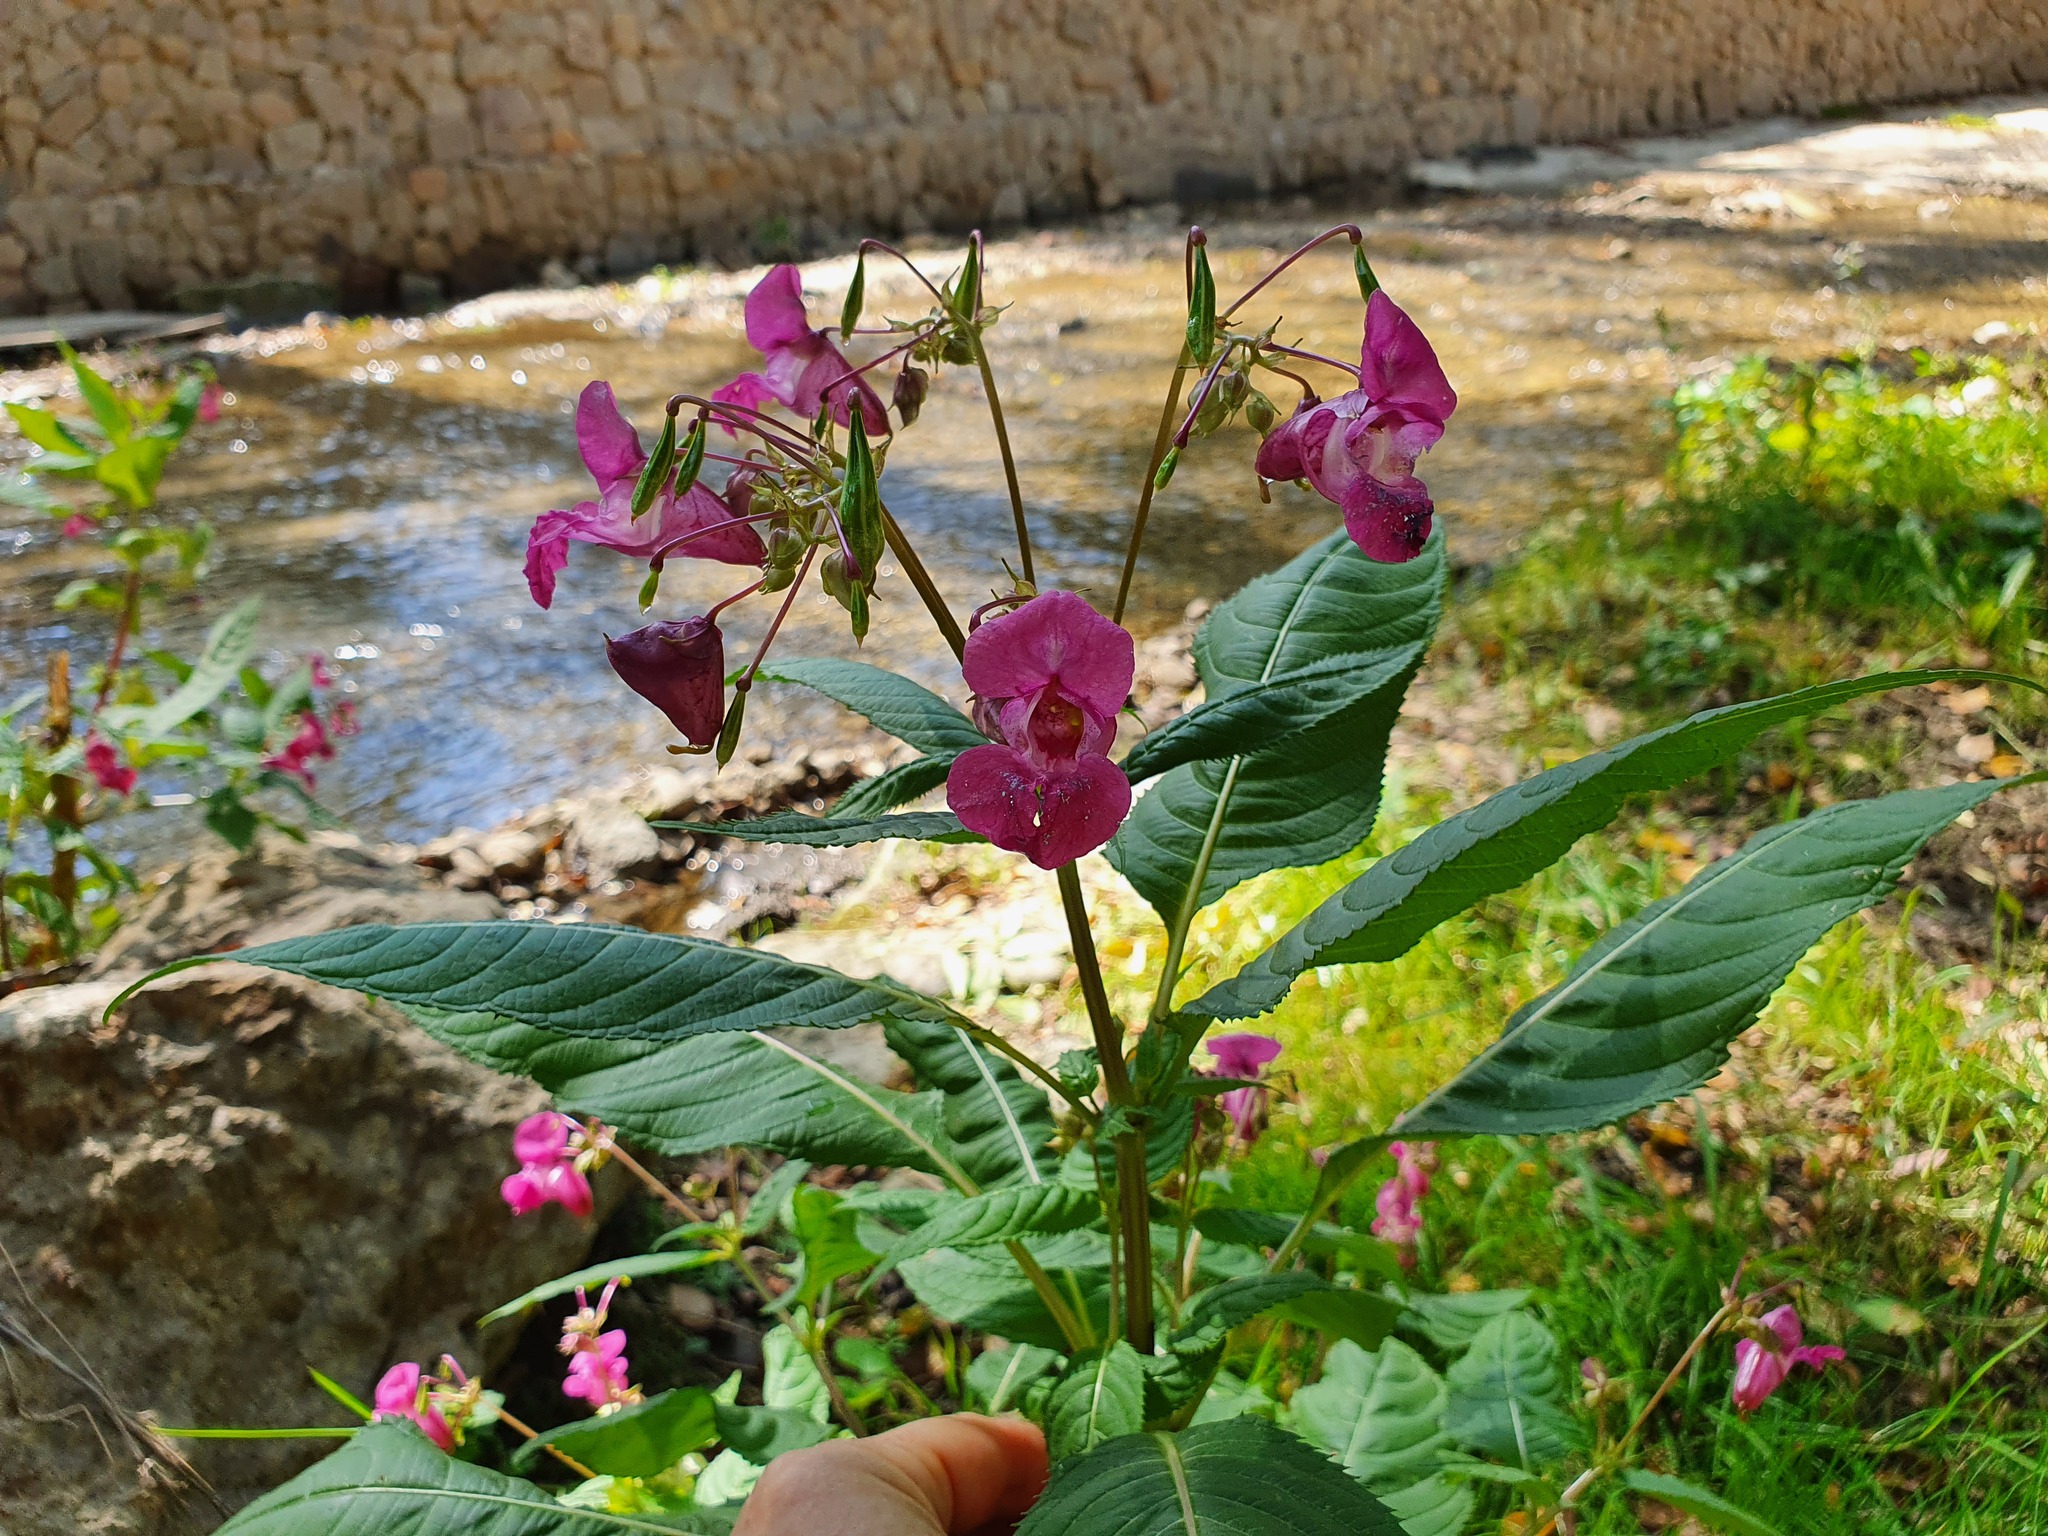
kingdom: Plantae
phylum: Tracheophyta
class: Magnoliopsida
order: Ericales
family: Balsaminaceae
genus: Impatiens
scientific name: Impatiens glandulifera
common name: Himalayan balsam
